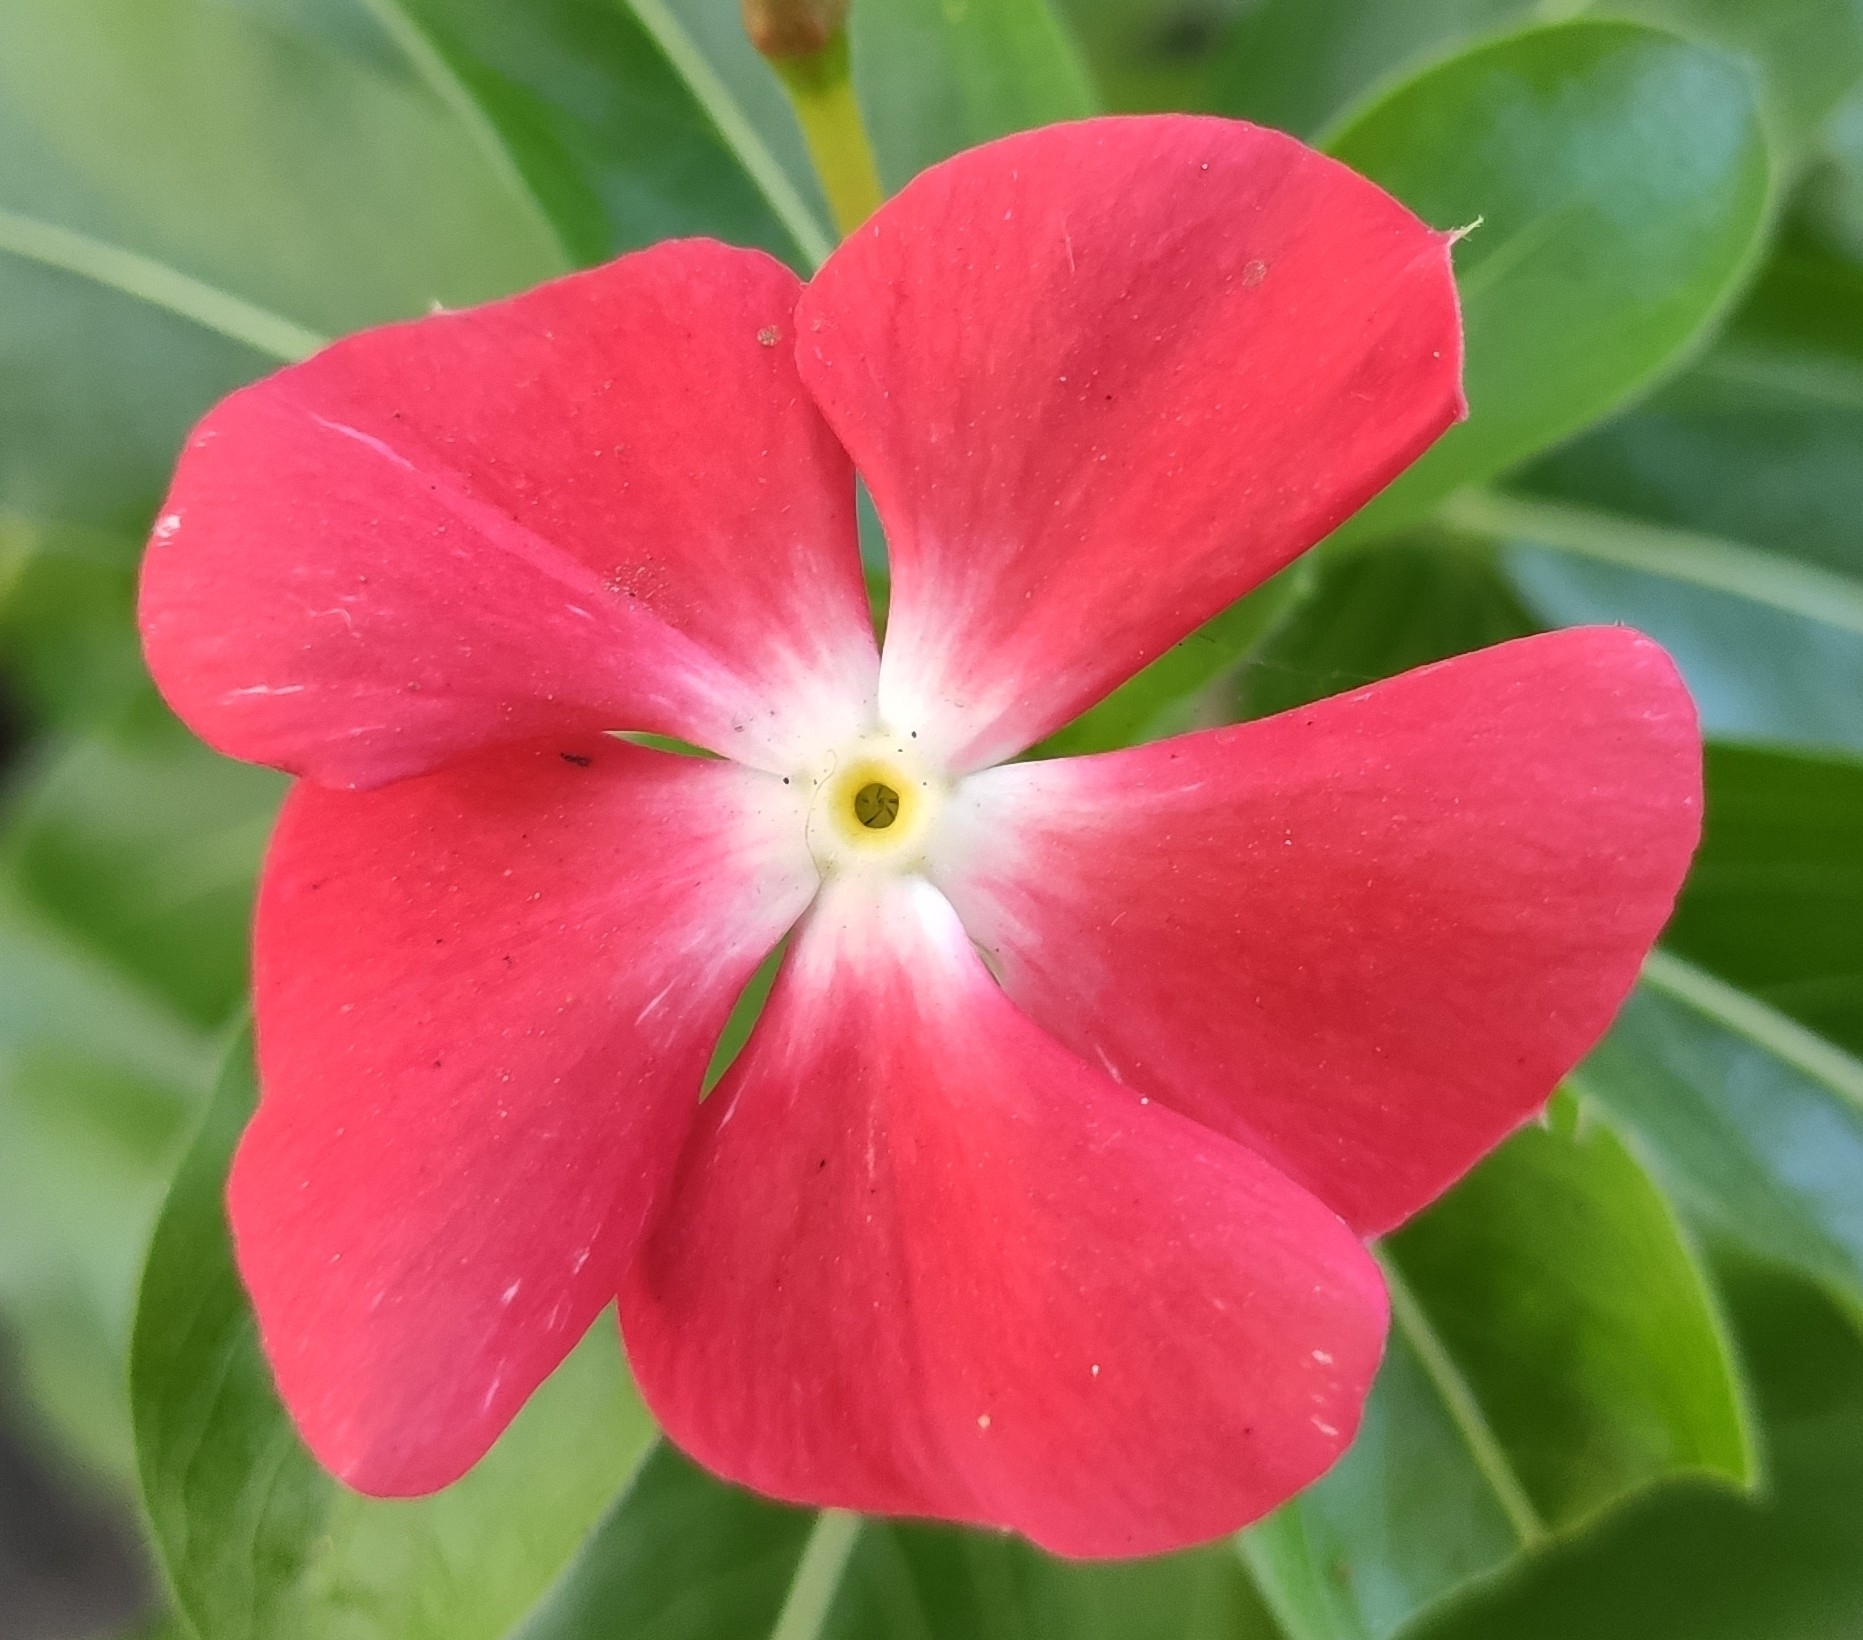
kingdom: Plantae
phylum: Tracheophyta
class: Magnoliopsida
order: Gentianales
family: Apocynaceae
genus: Catharanthus
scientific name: Catharanthus roseus
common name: Madagascar periwinkle
